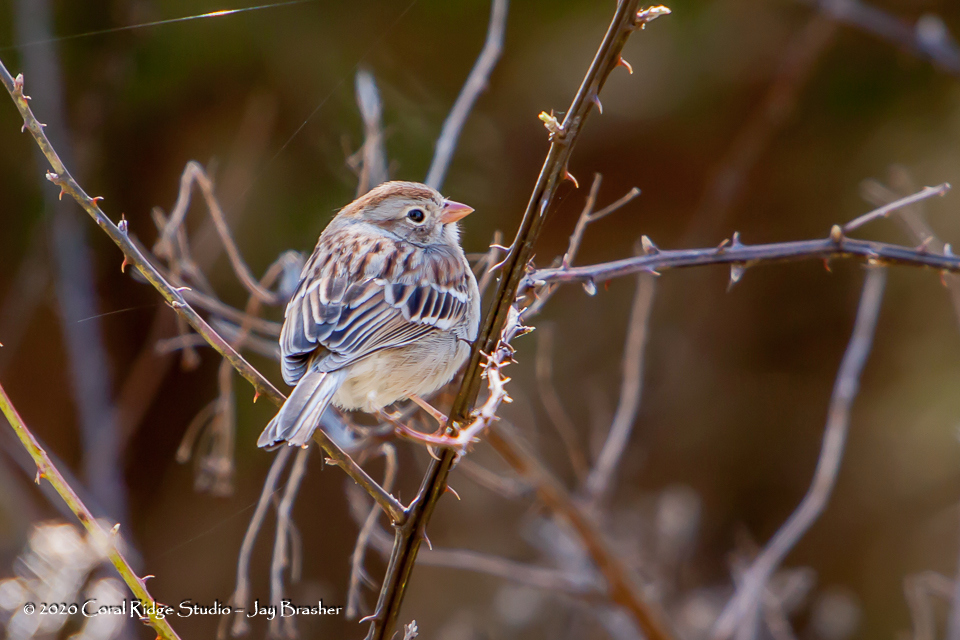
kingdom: Animalia
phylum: Chordata
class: Aves
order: Passeriformes
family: Passerellidae
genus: Spizella
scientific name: Spizella pusilla
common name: Field sparrow
